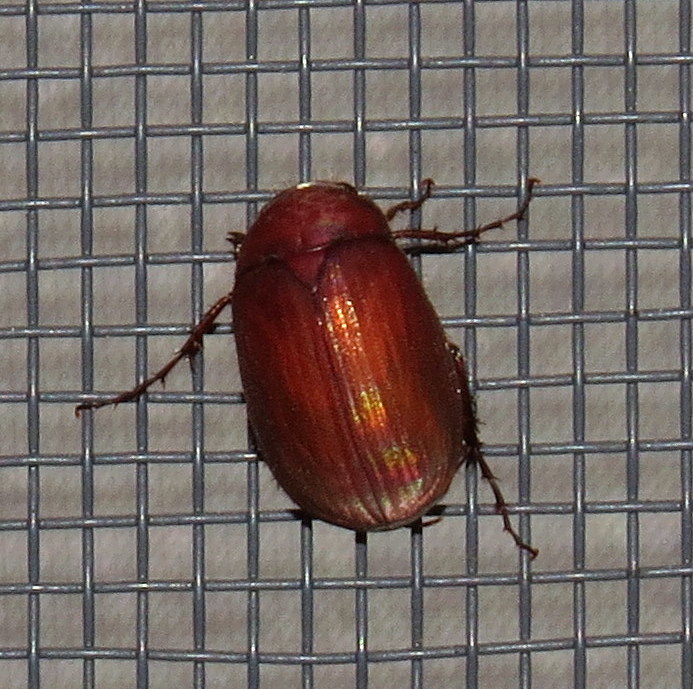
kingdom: Animalia
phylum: Arthropoda
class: Insecta
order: Coleoptera
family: Scarabaeidae
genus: Maladera
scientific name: Maladera formosae
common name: Asiatic garden beetle
